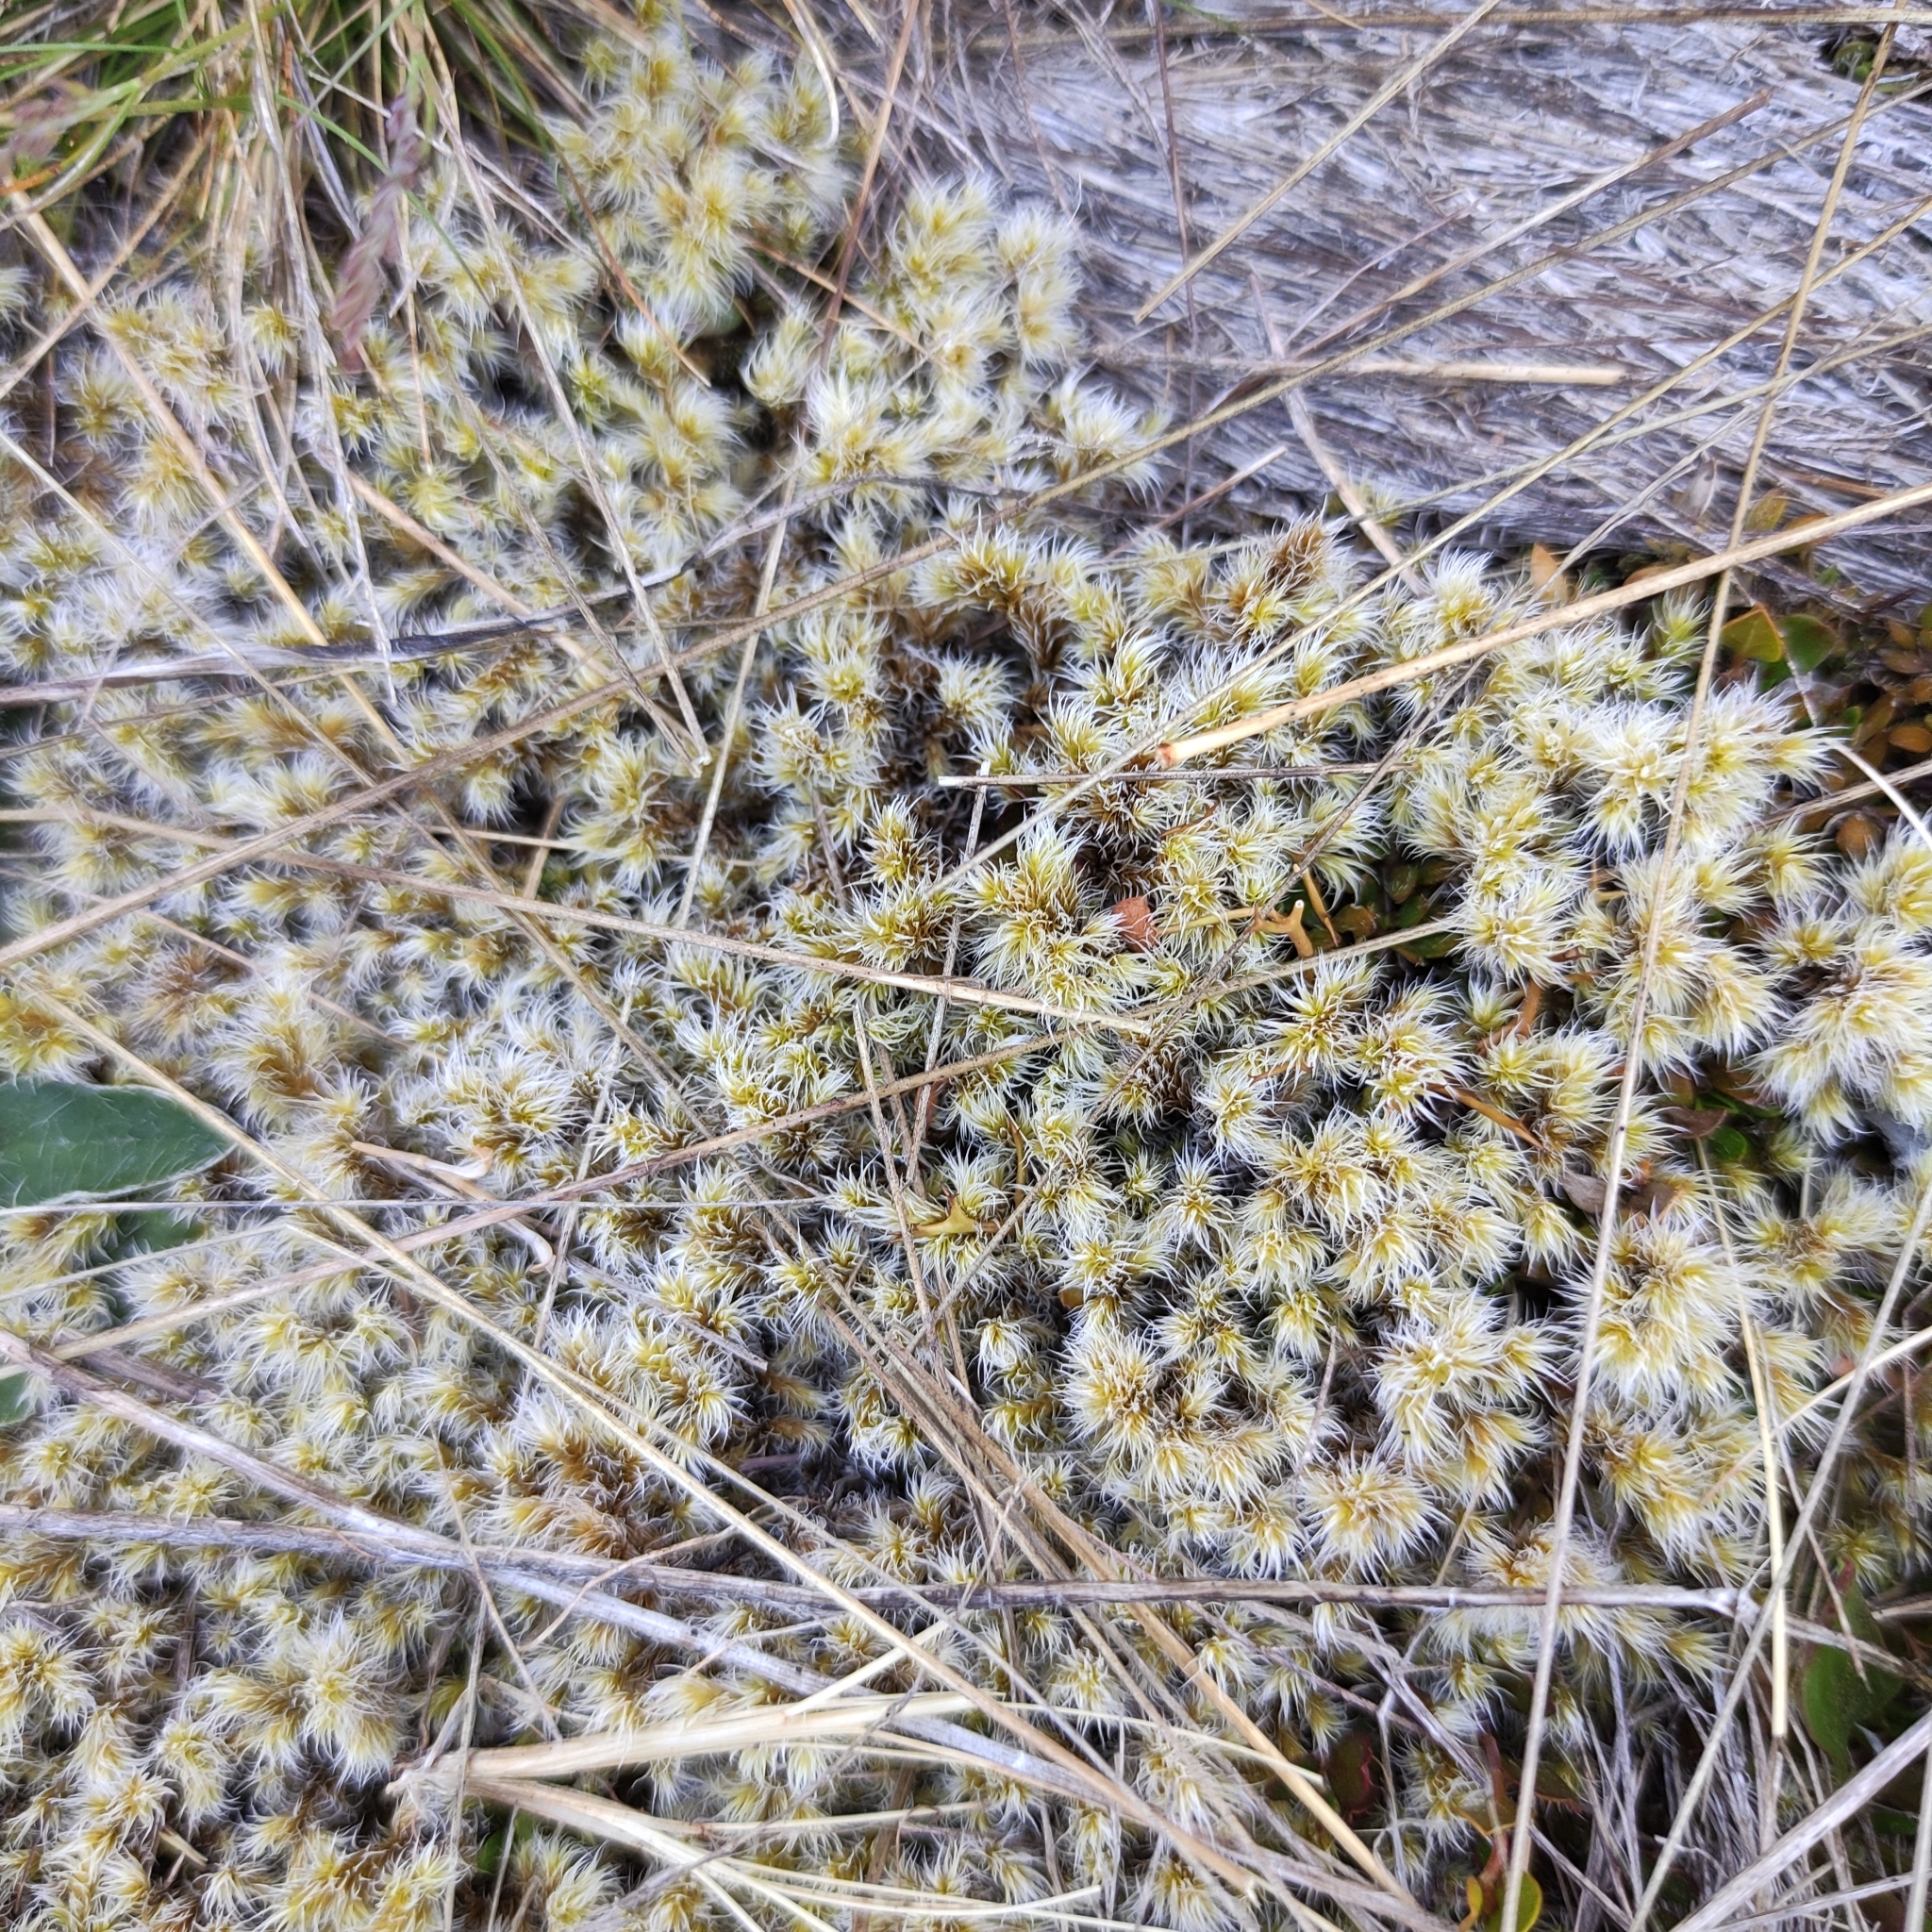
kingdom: Plantae
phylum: Bryophyta
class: Bryopsida
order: Grimmiales
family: Grimmiaceae
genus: Racomitrium
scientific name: Racomitrium lanuginosum
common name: Hoary rock moss
